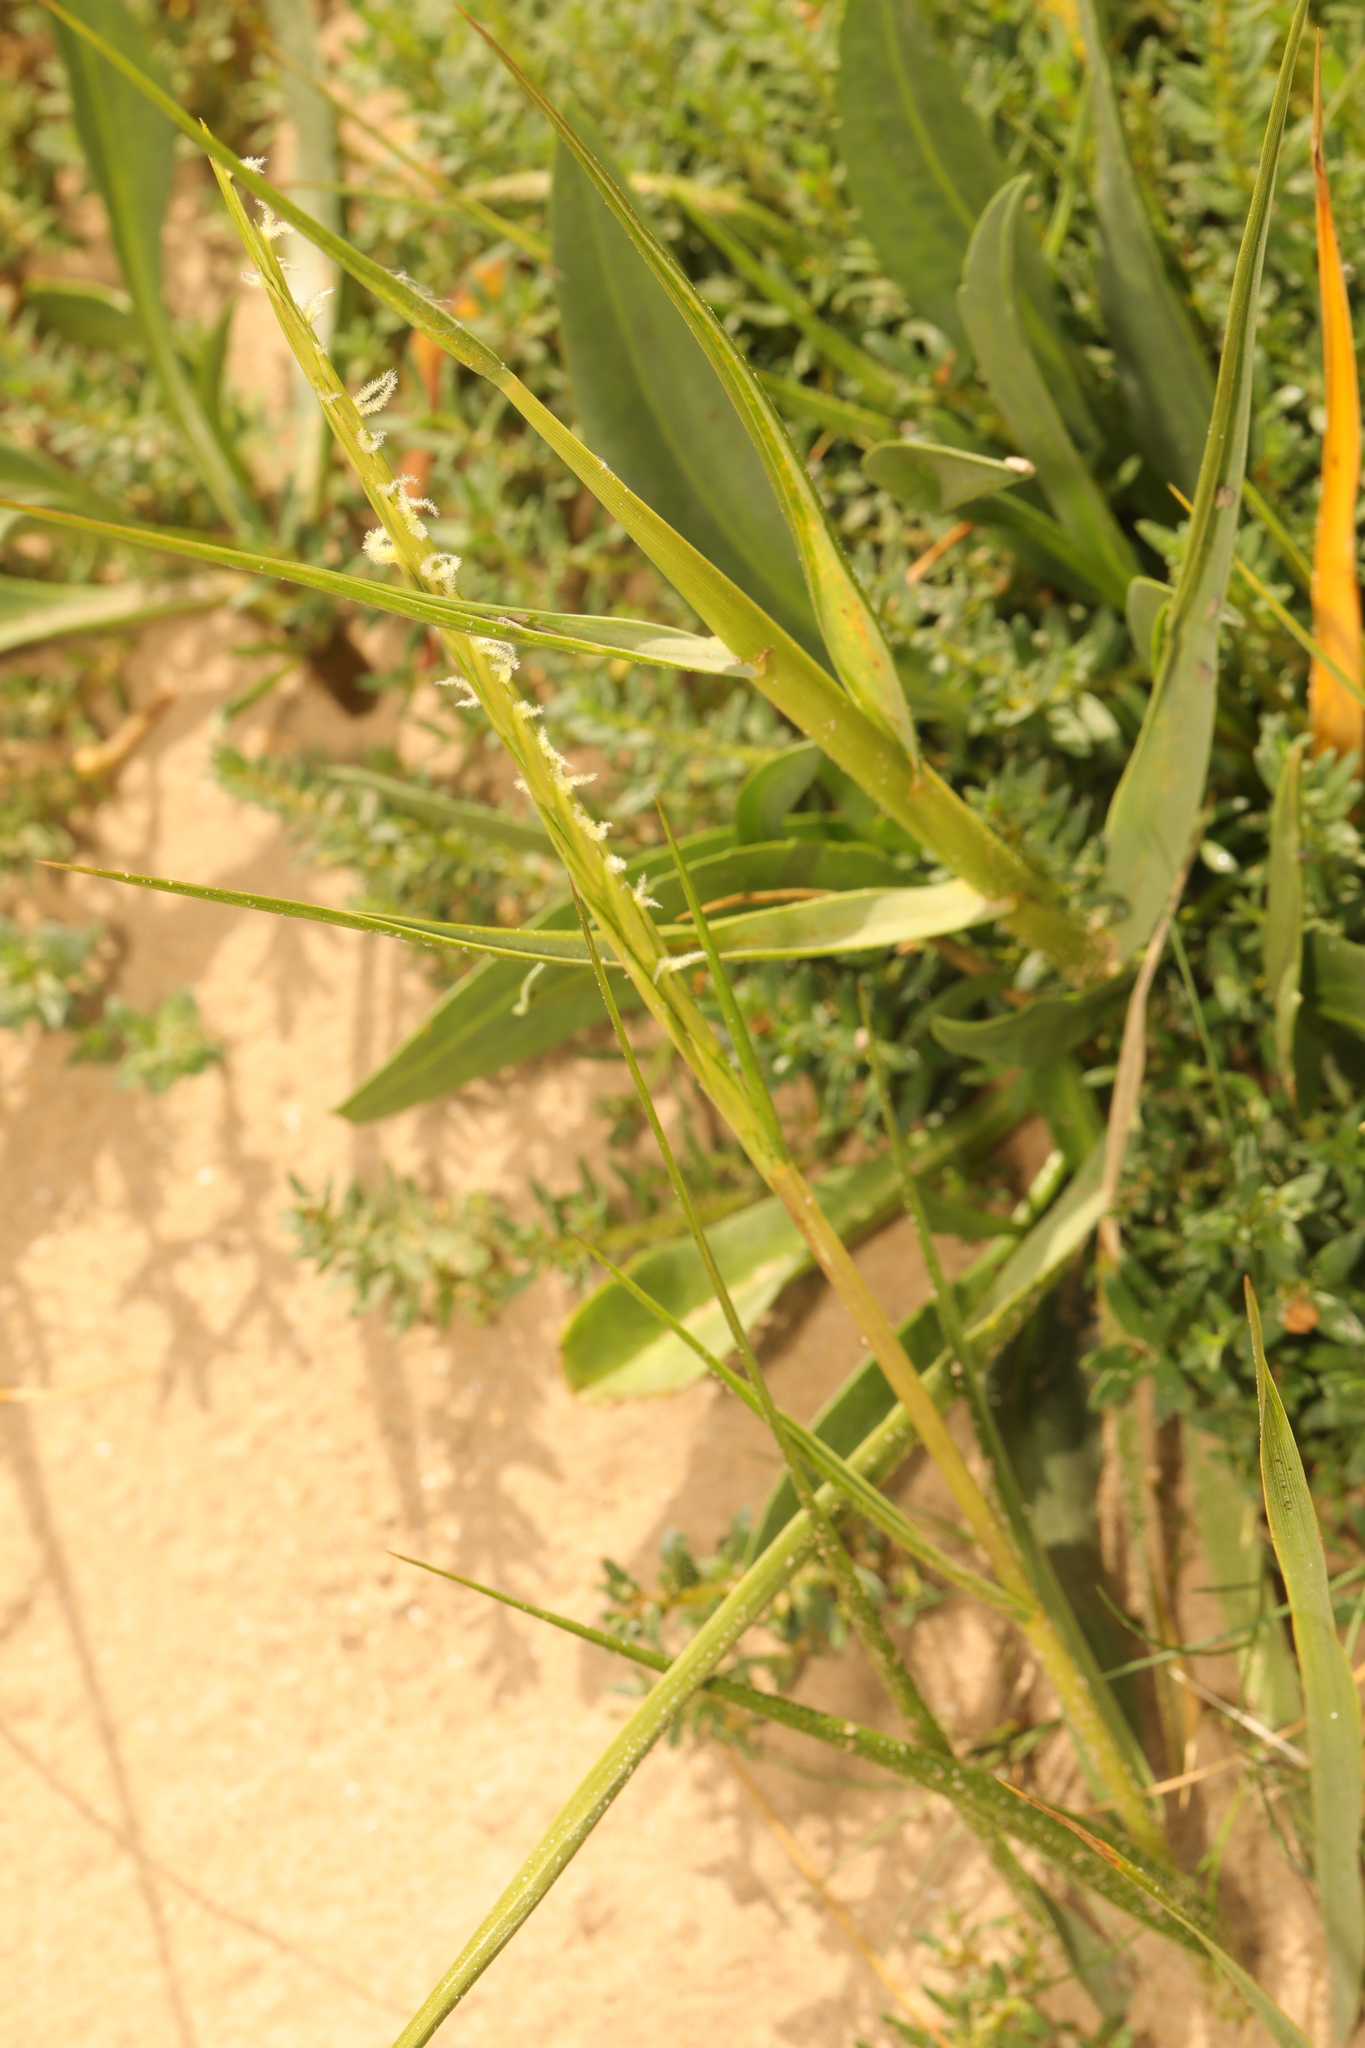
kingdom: Plantae
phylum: Tracheophyta
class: Liliopsida
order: Poales
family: Poaceae
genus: Sporobolus
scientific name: Sporobolus anglicus
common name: English cordgrass
